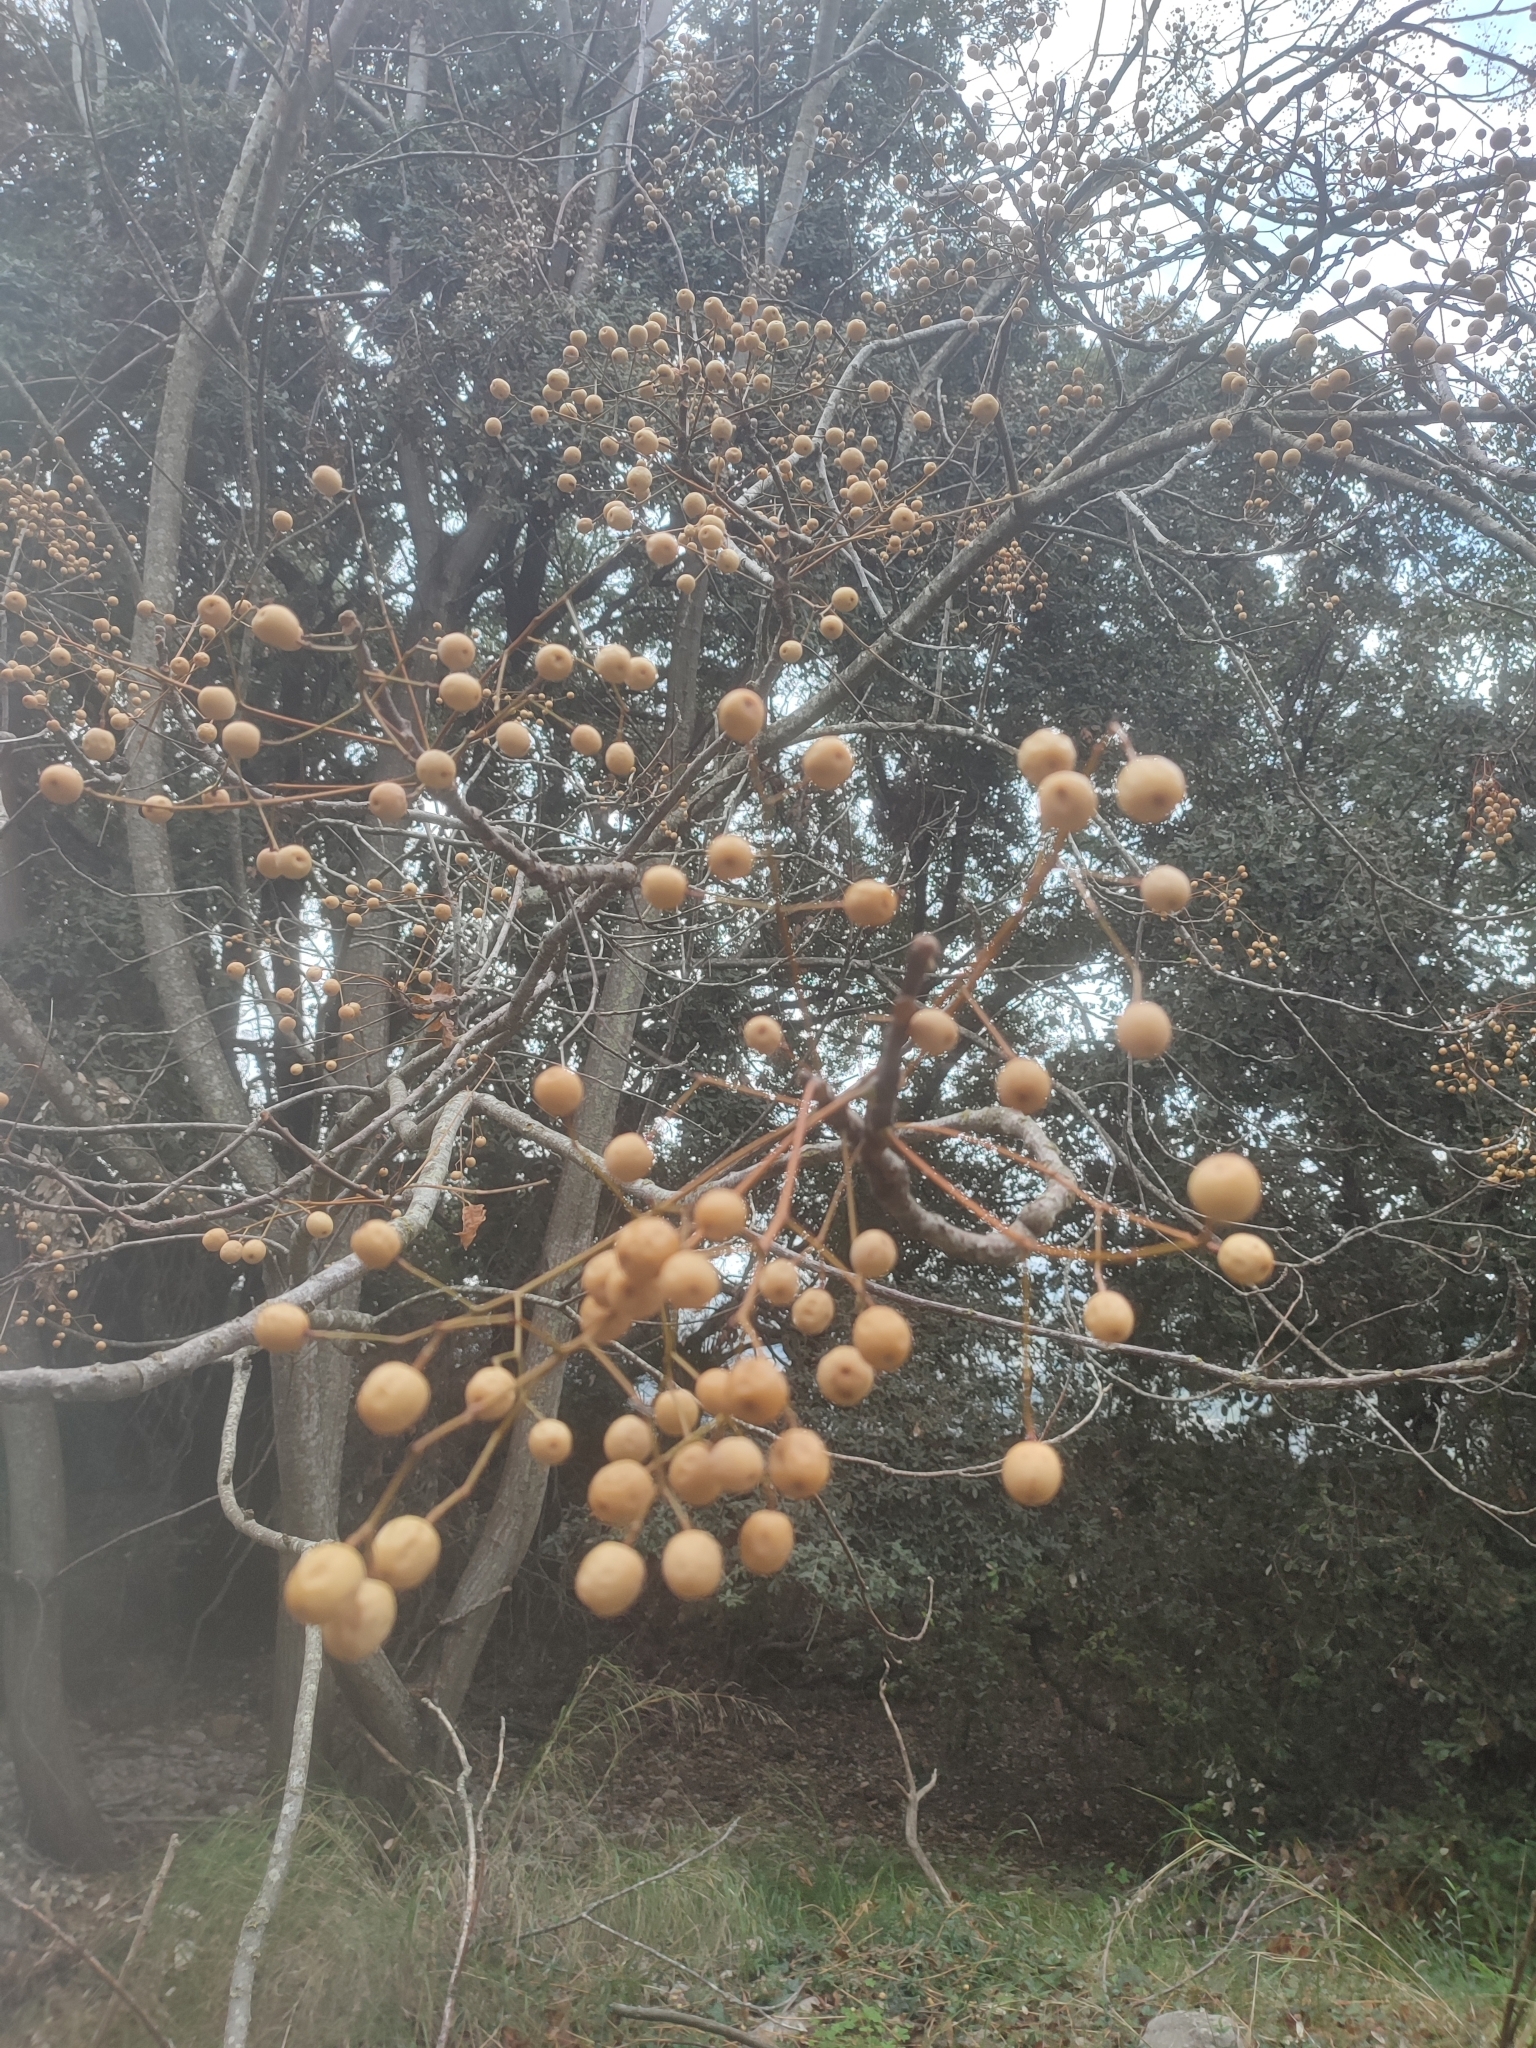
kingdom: Plantae
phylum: Tracheophyta
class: Magnoliopsida
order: Sapindales
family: Meliaceae
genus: Melia
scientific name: Melia azedarach
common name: Chinaberrytree
